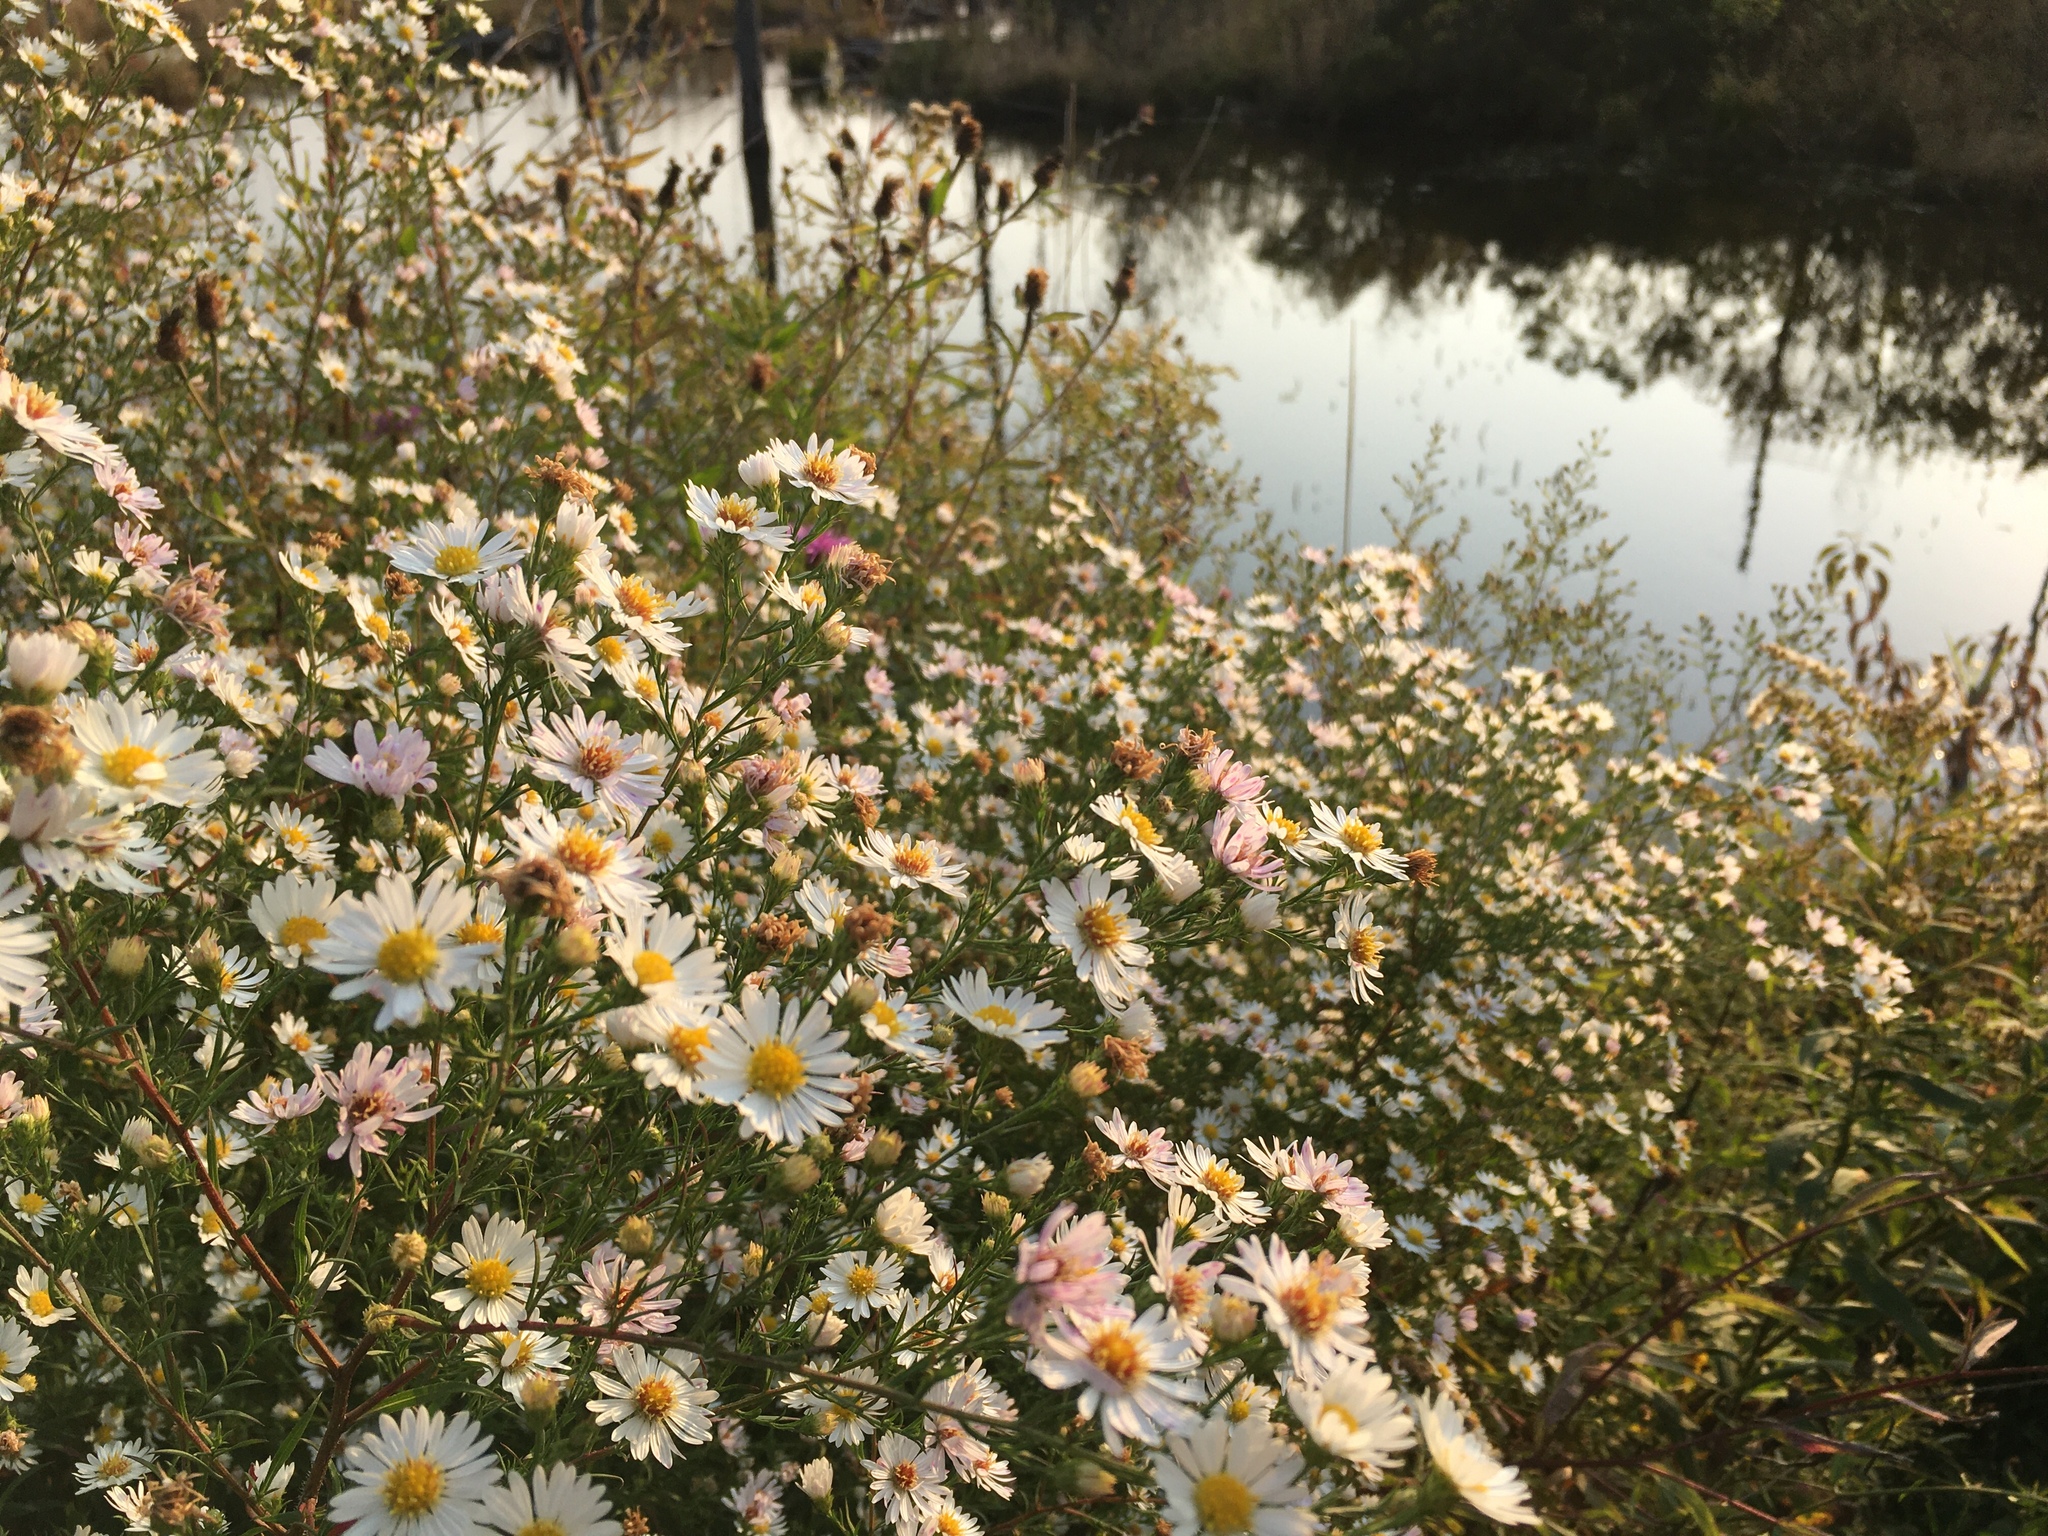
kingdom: Plantae
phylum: Tracheophyta
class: Magnoliopsida
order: Asterales
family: Asteraceae
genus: Symphyotrichum
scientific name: Symphyotrichum pilosum
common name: Awl aster
